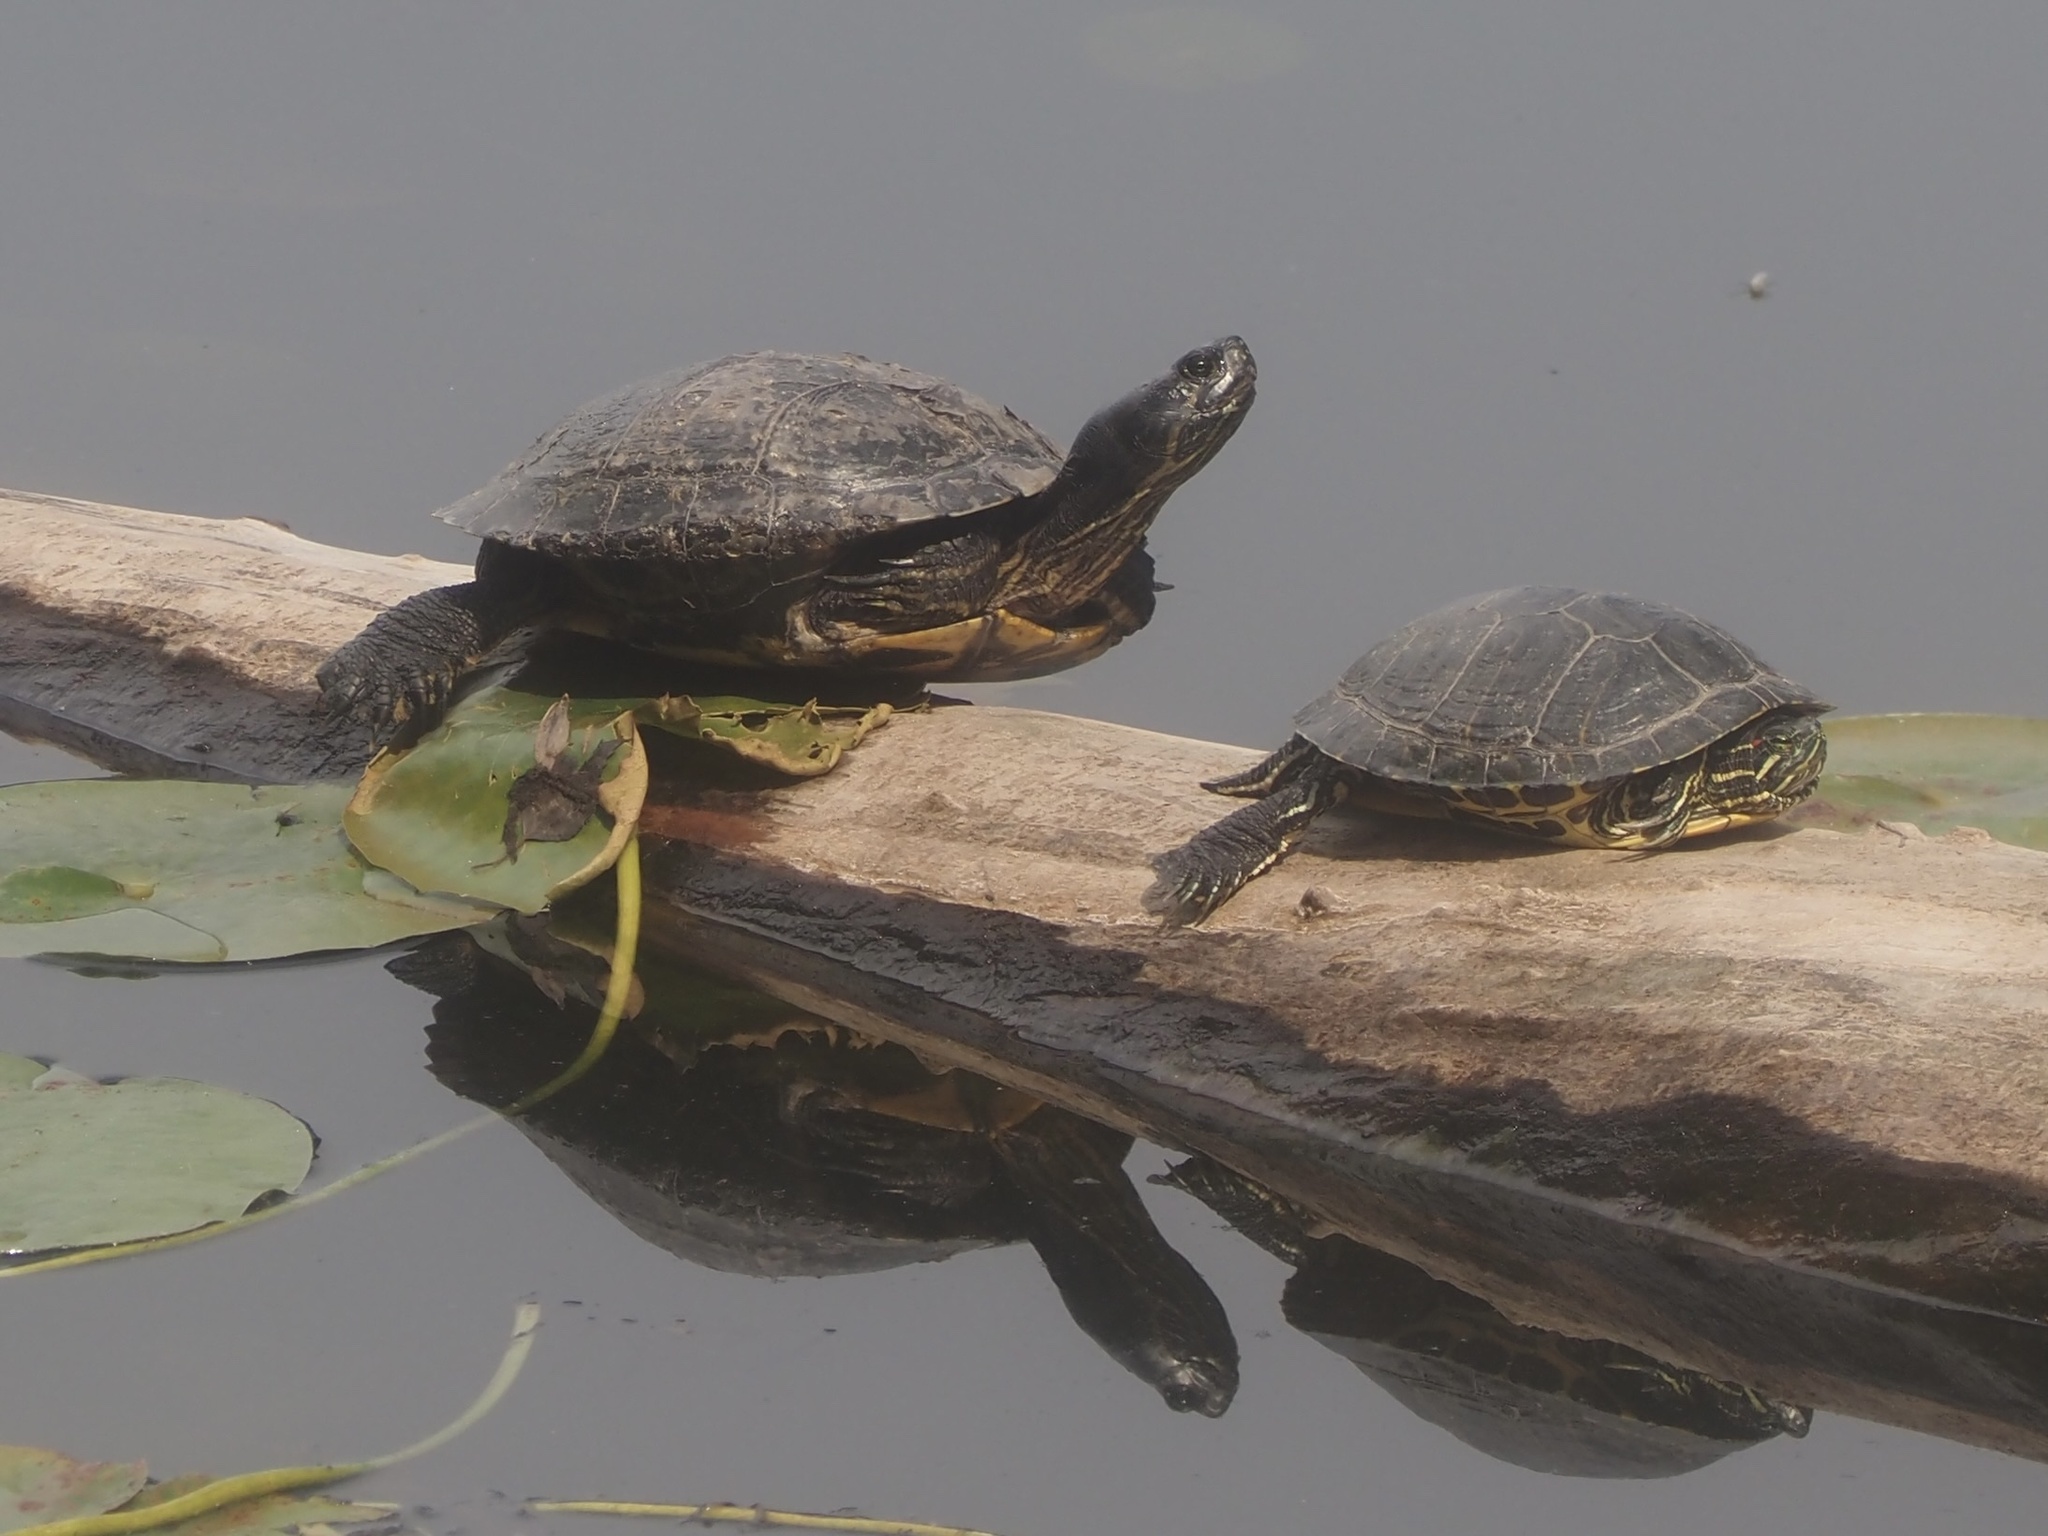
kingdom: Animalia
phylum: Chordata
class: Testudines
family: Emydidae
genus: Trachemys
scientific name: Trachemys scripta
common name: Slider
